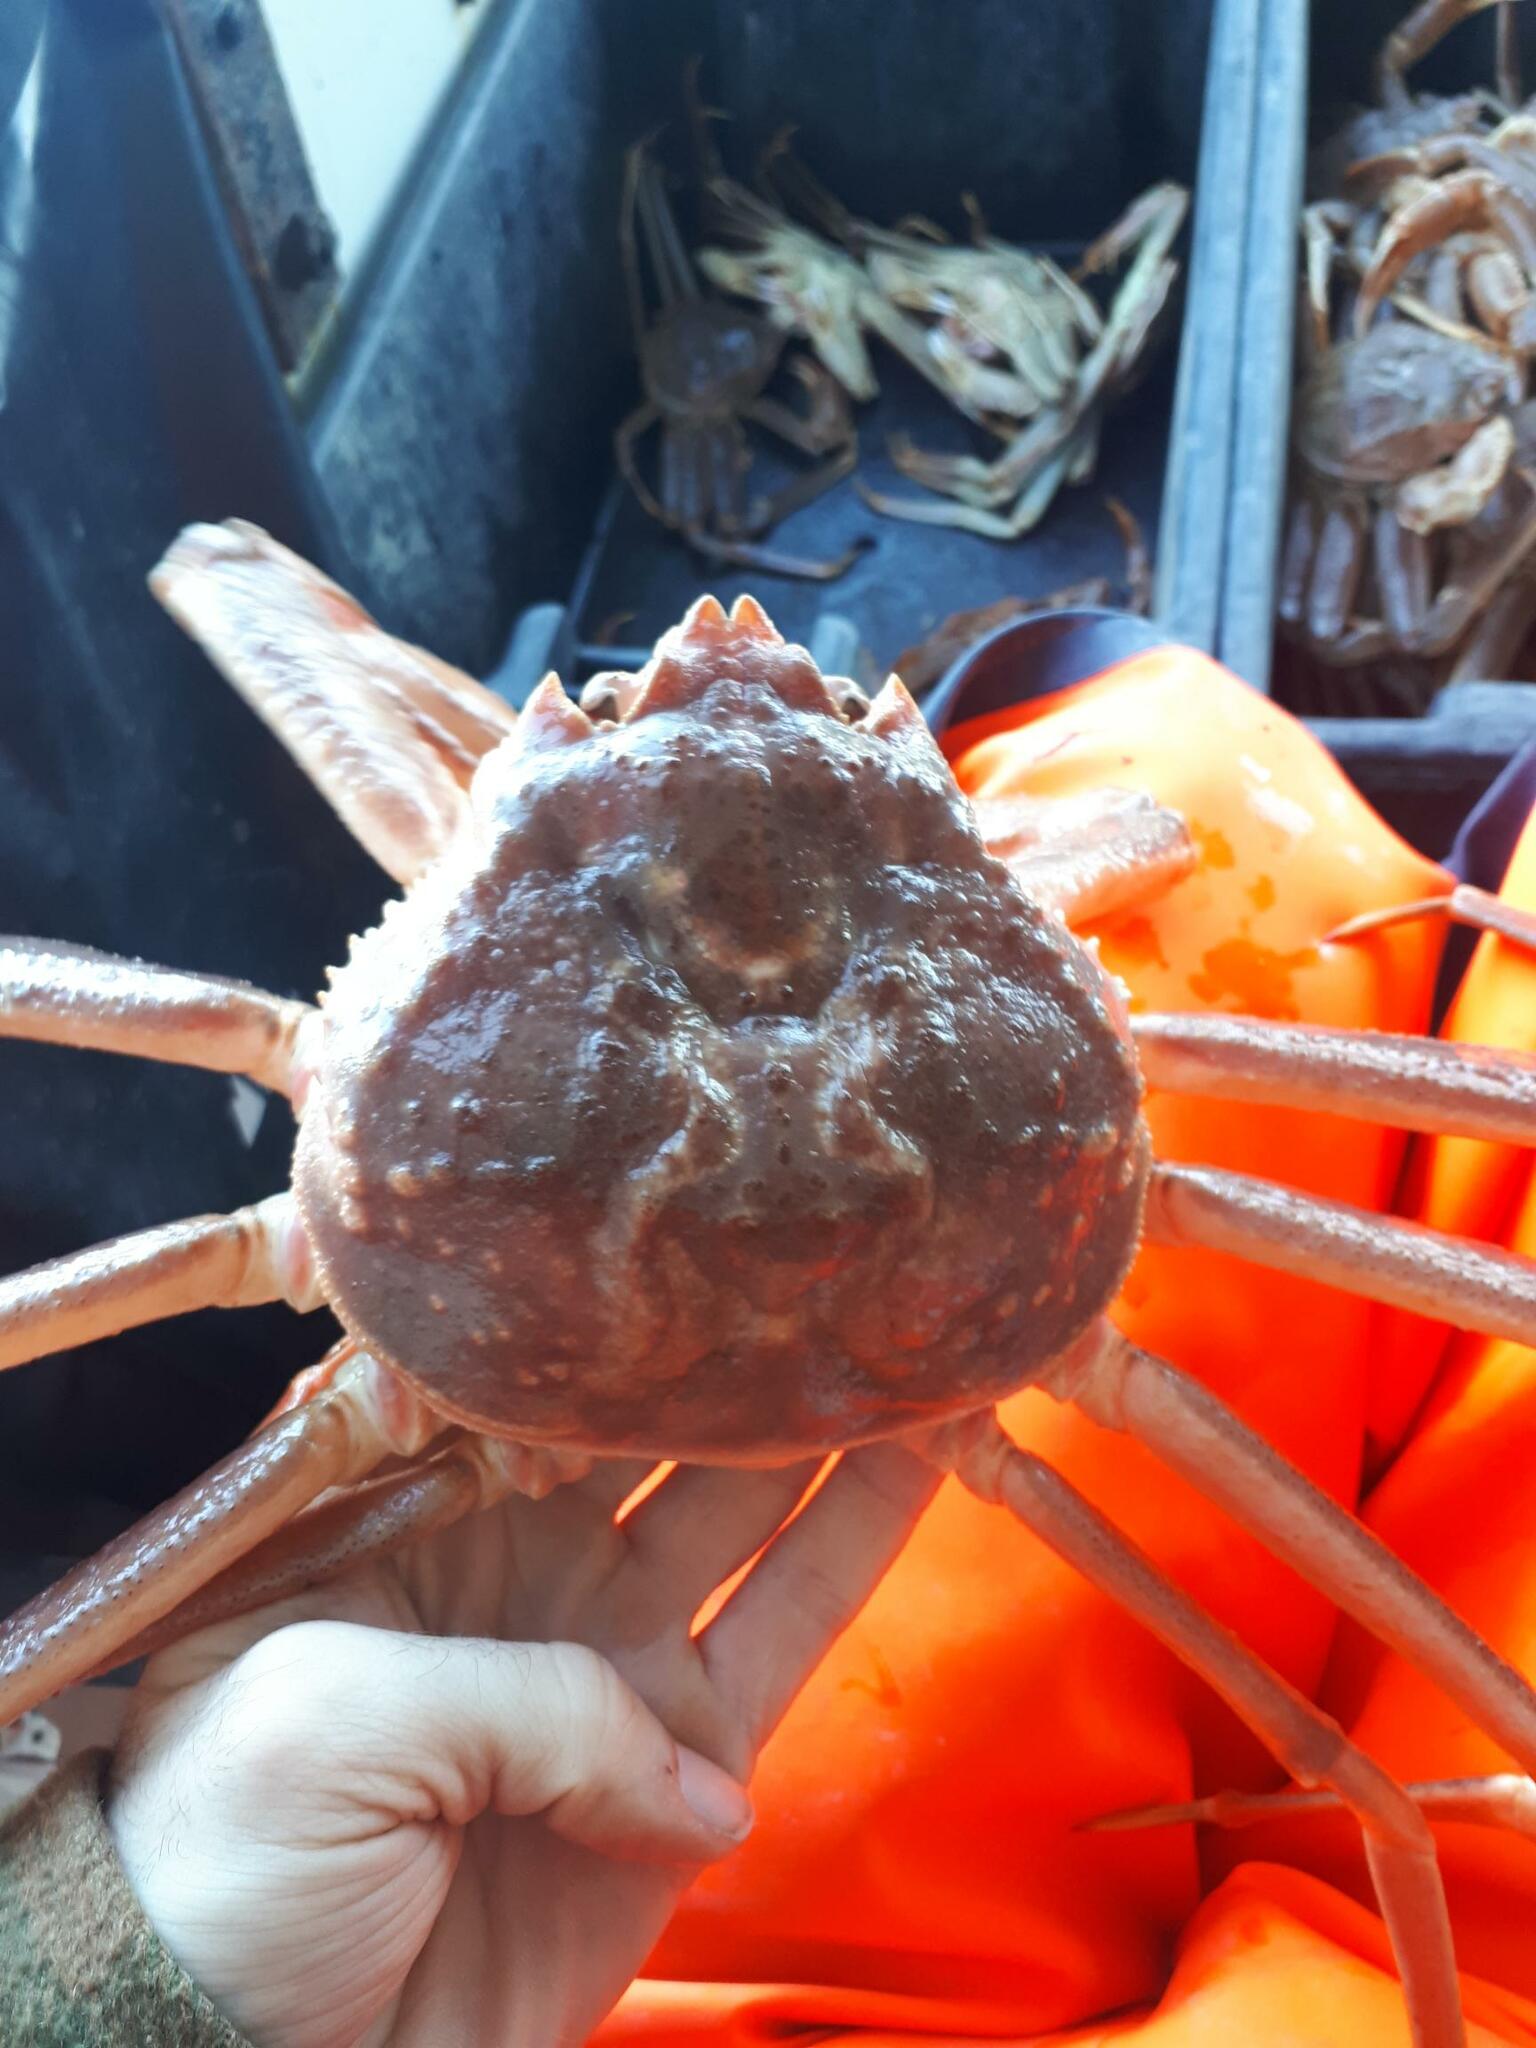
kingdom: Animalia
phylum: Arthropoda
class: Malacostraca
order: Decapoda
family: Oregoniidae
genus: Chionoecetes
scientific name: Chionoecetes opilio
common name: Atlantic snow crab
